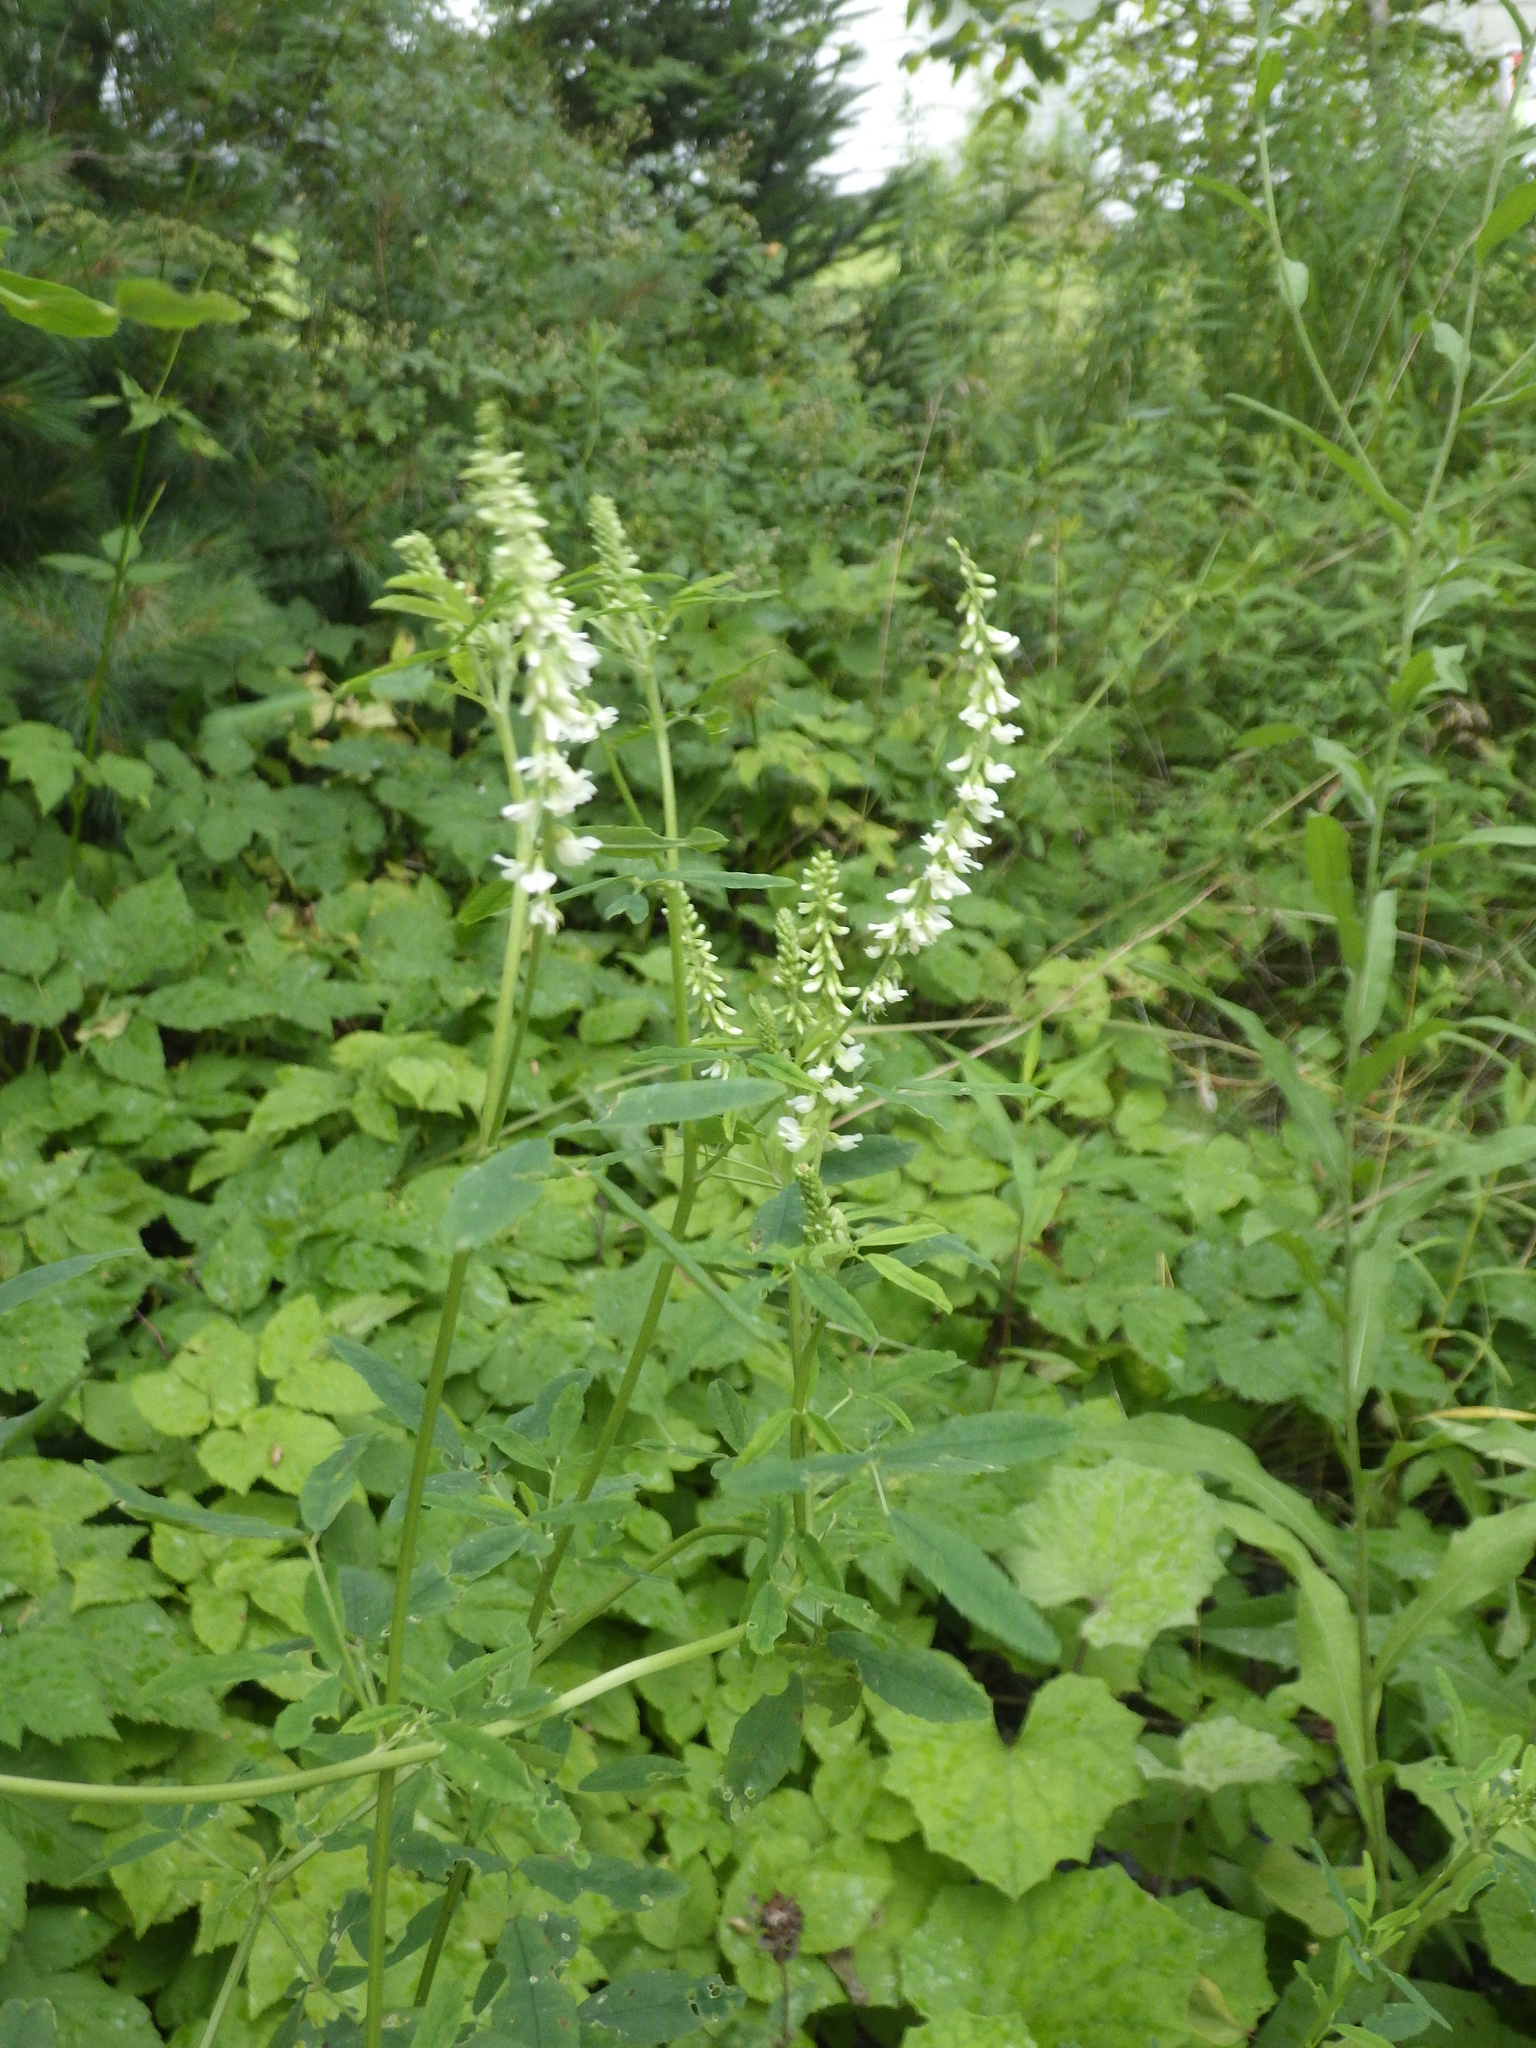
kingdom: Plantae
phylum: Tracheophyta
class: Magnoliopsida
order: Fabales
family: Fabaceae
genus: Melilotus
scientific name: Melilotus albus
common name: White melilot
